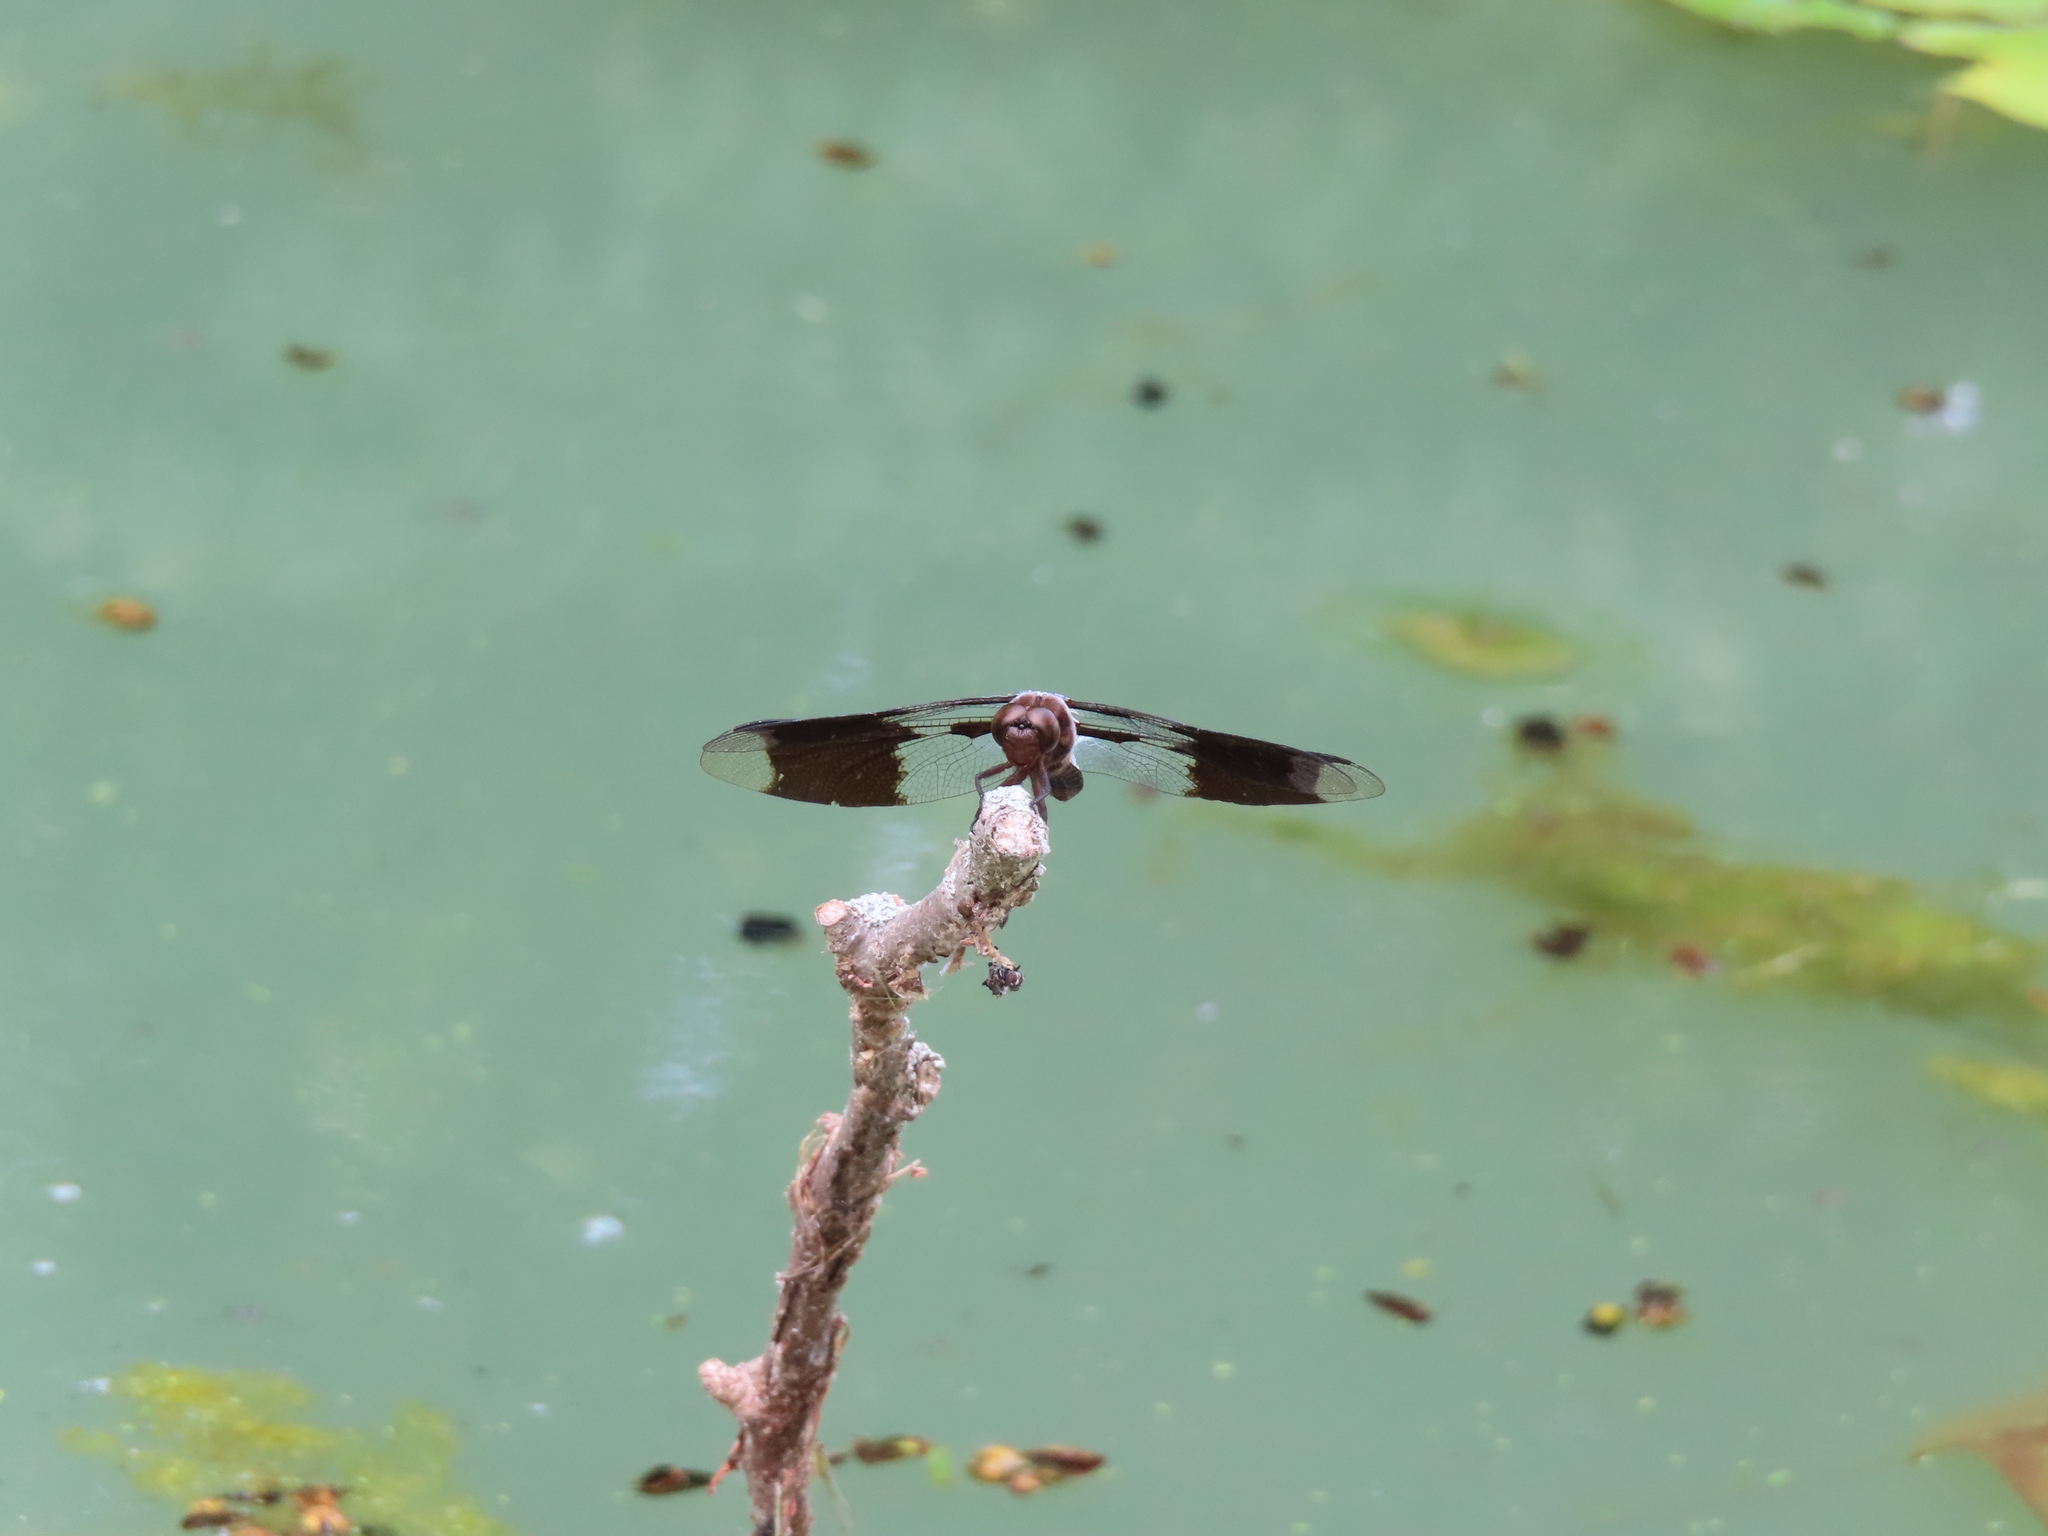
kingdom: Animalia
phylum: Arthropoda
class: Insecta
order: Odonata
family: Libellulidae
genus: Plathemis
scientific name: Plathemis lydia
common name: Common whitetail
